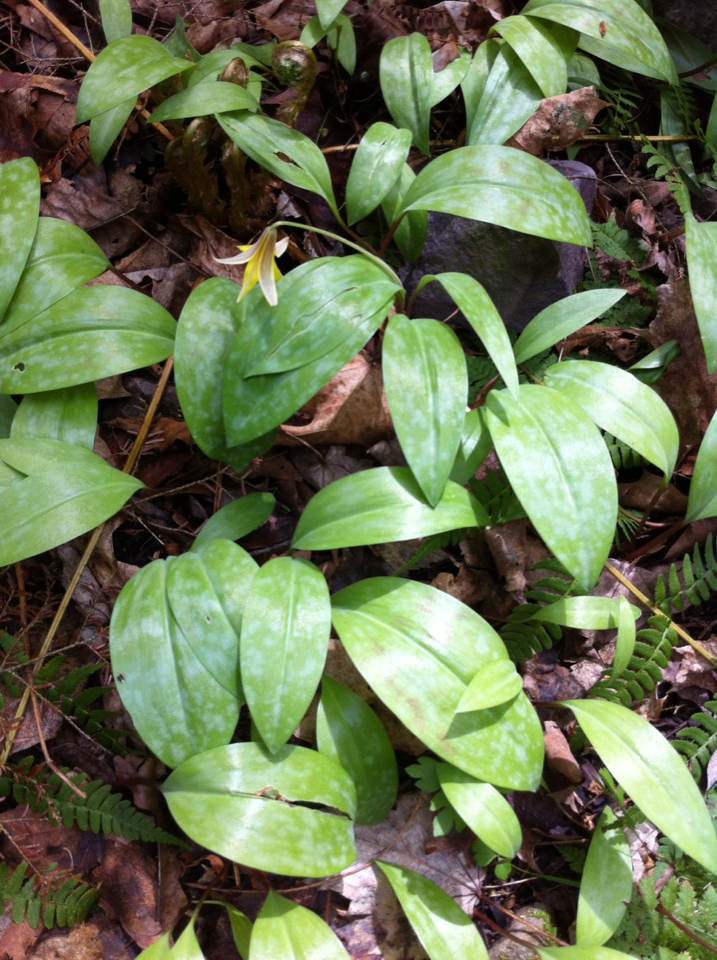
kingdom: Plantae
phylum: Tracheophyta
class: Liliopsida
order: Liliales
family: Liliaceae
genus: Erythronium
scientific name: Erythronium americanum
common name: Yellow adder's-tongue
